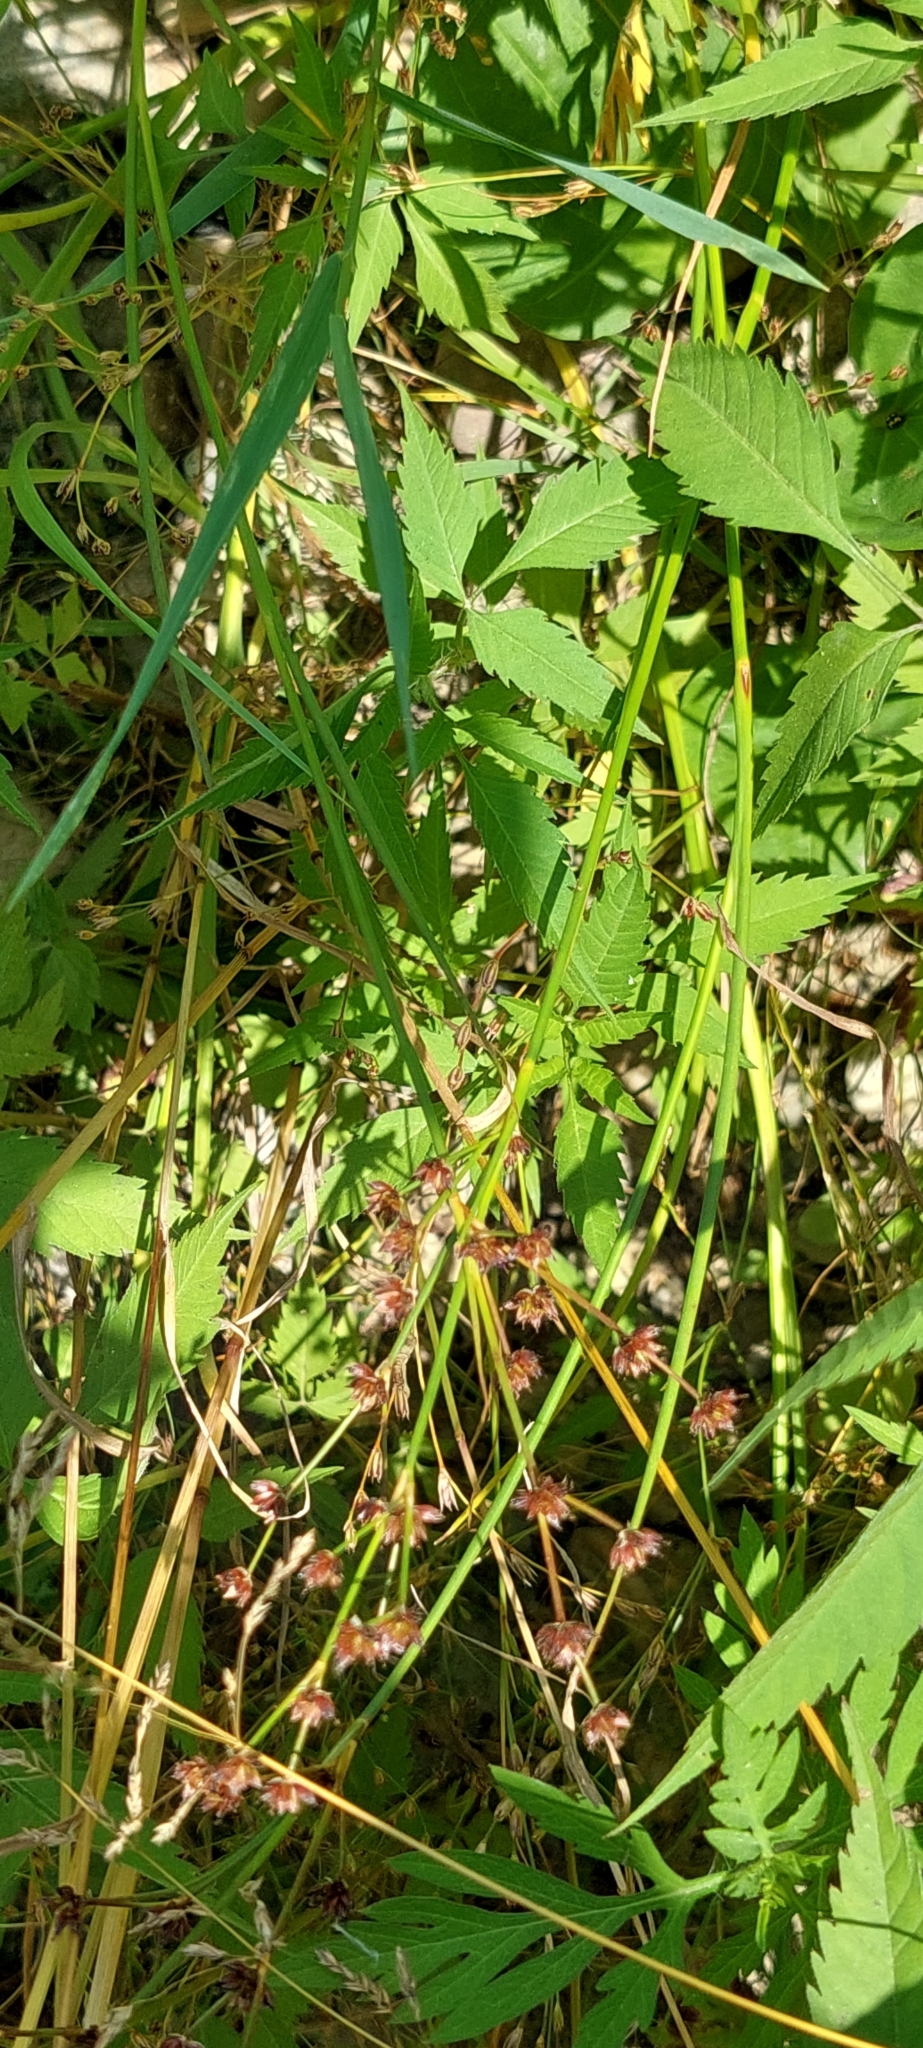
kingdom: Plantae
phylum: Tracheophyta
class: Liliopsida
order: Poales
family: Juncaceae
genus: Juncus
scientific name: Juncus articulatus
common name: Jointed rush
